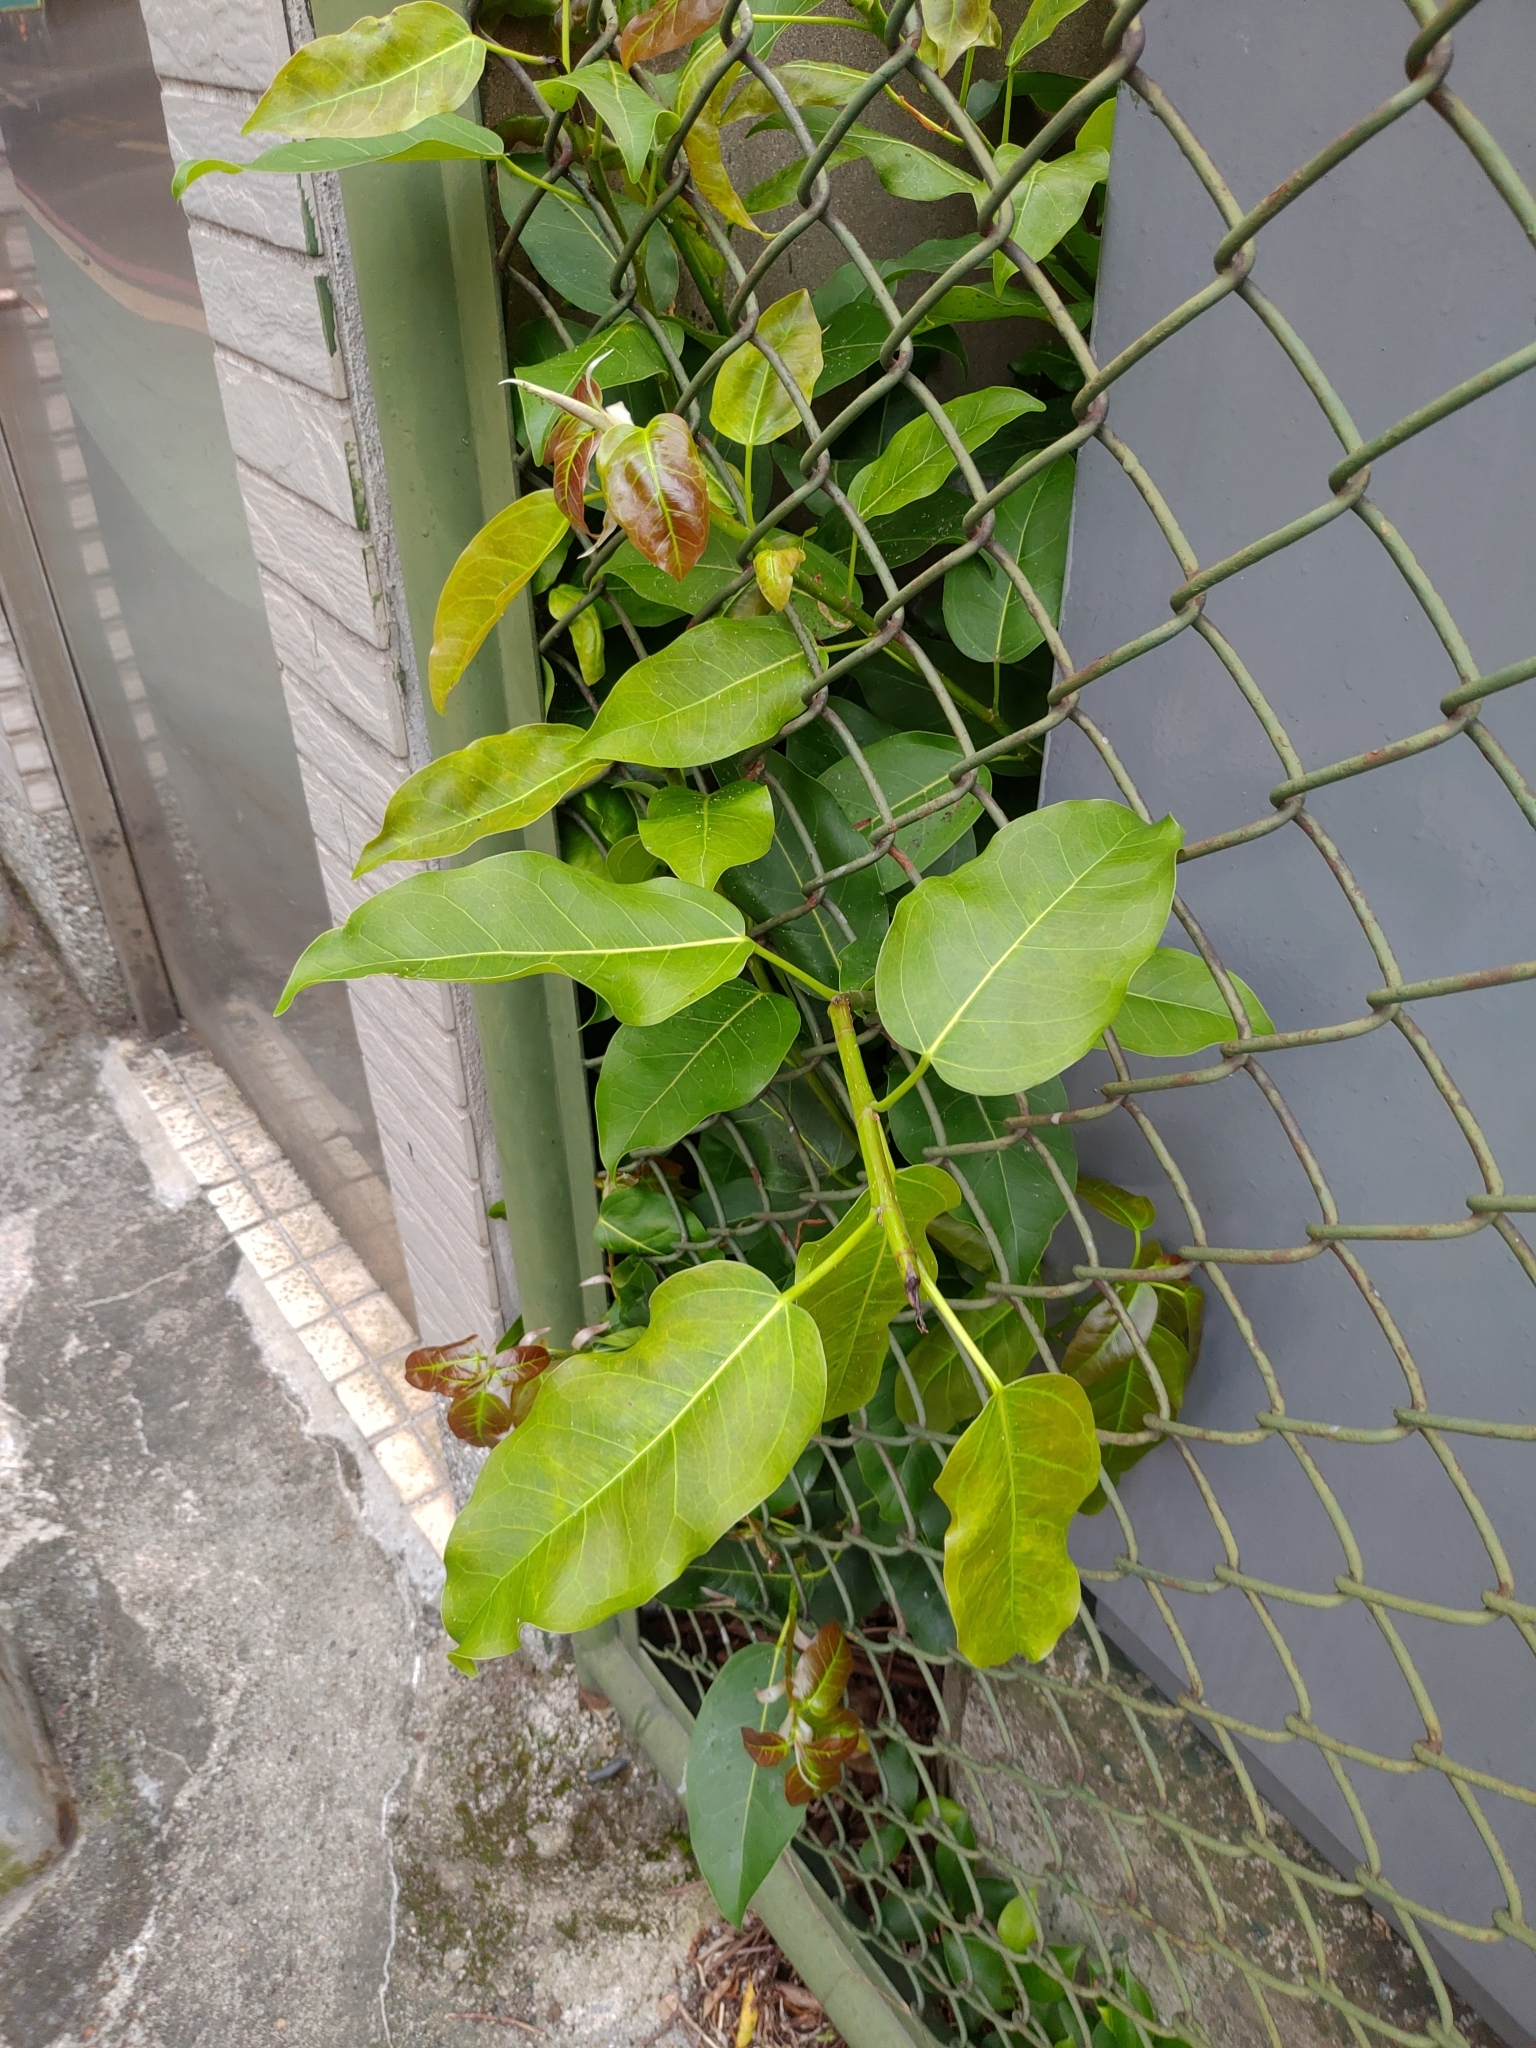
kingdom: Plantae
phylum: Tracheophyta
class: Magnoliopsida
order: Rosales
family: Moraceae
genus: Ficus
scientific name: Ficus subpisocarpa
